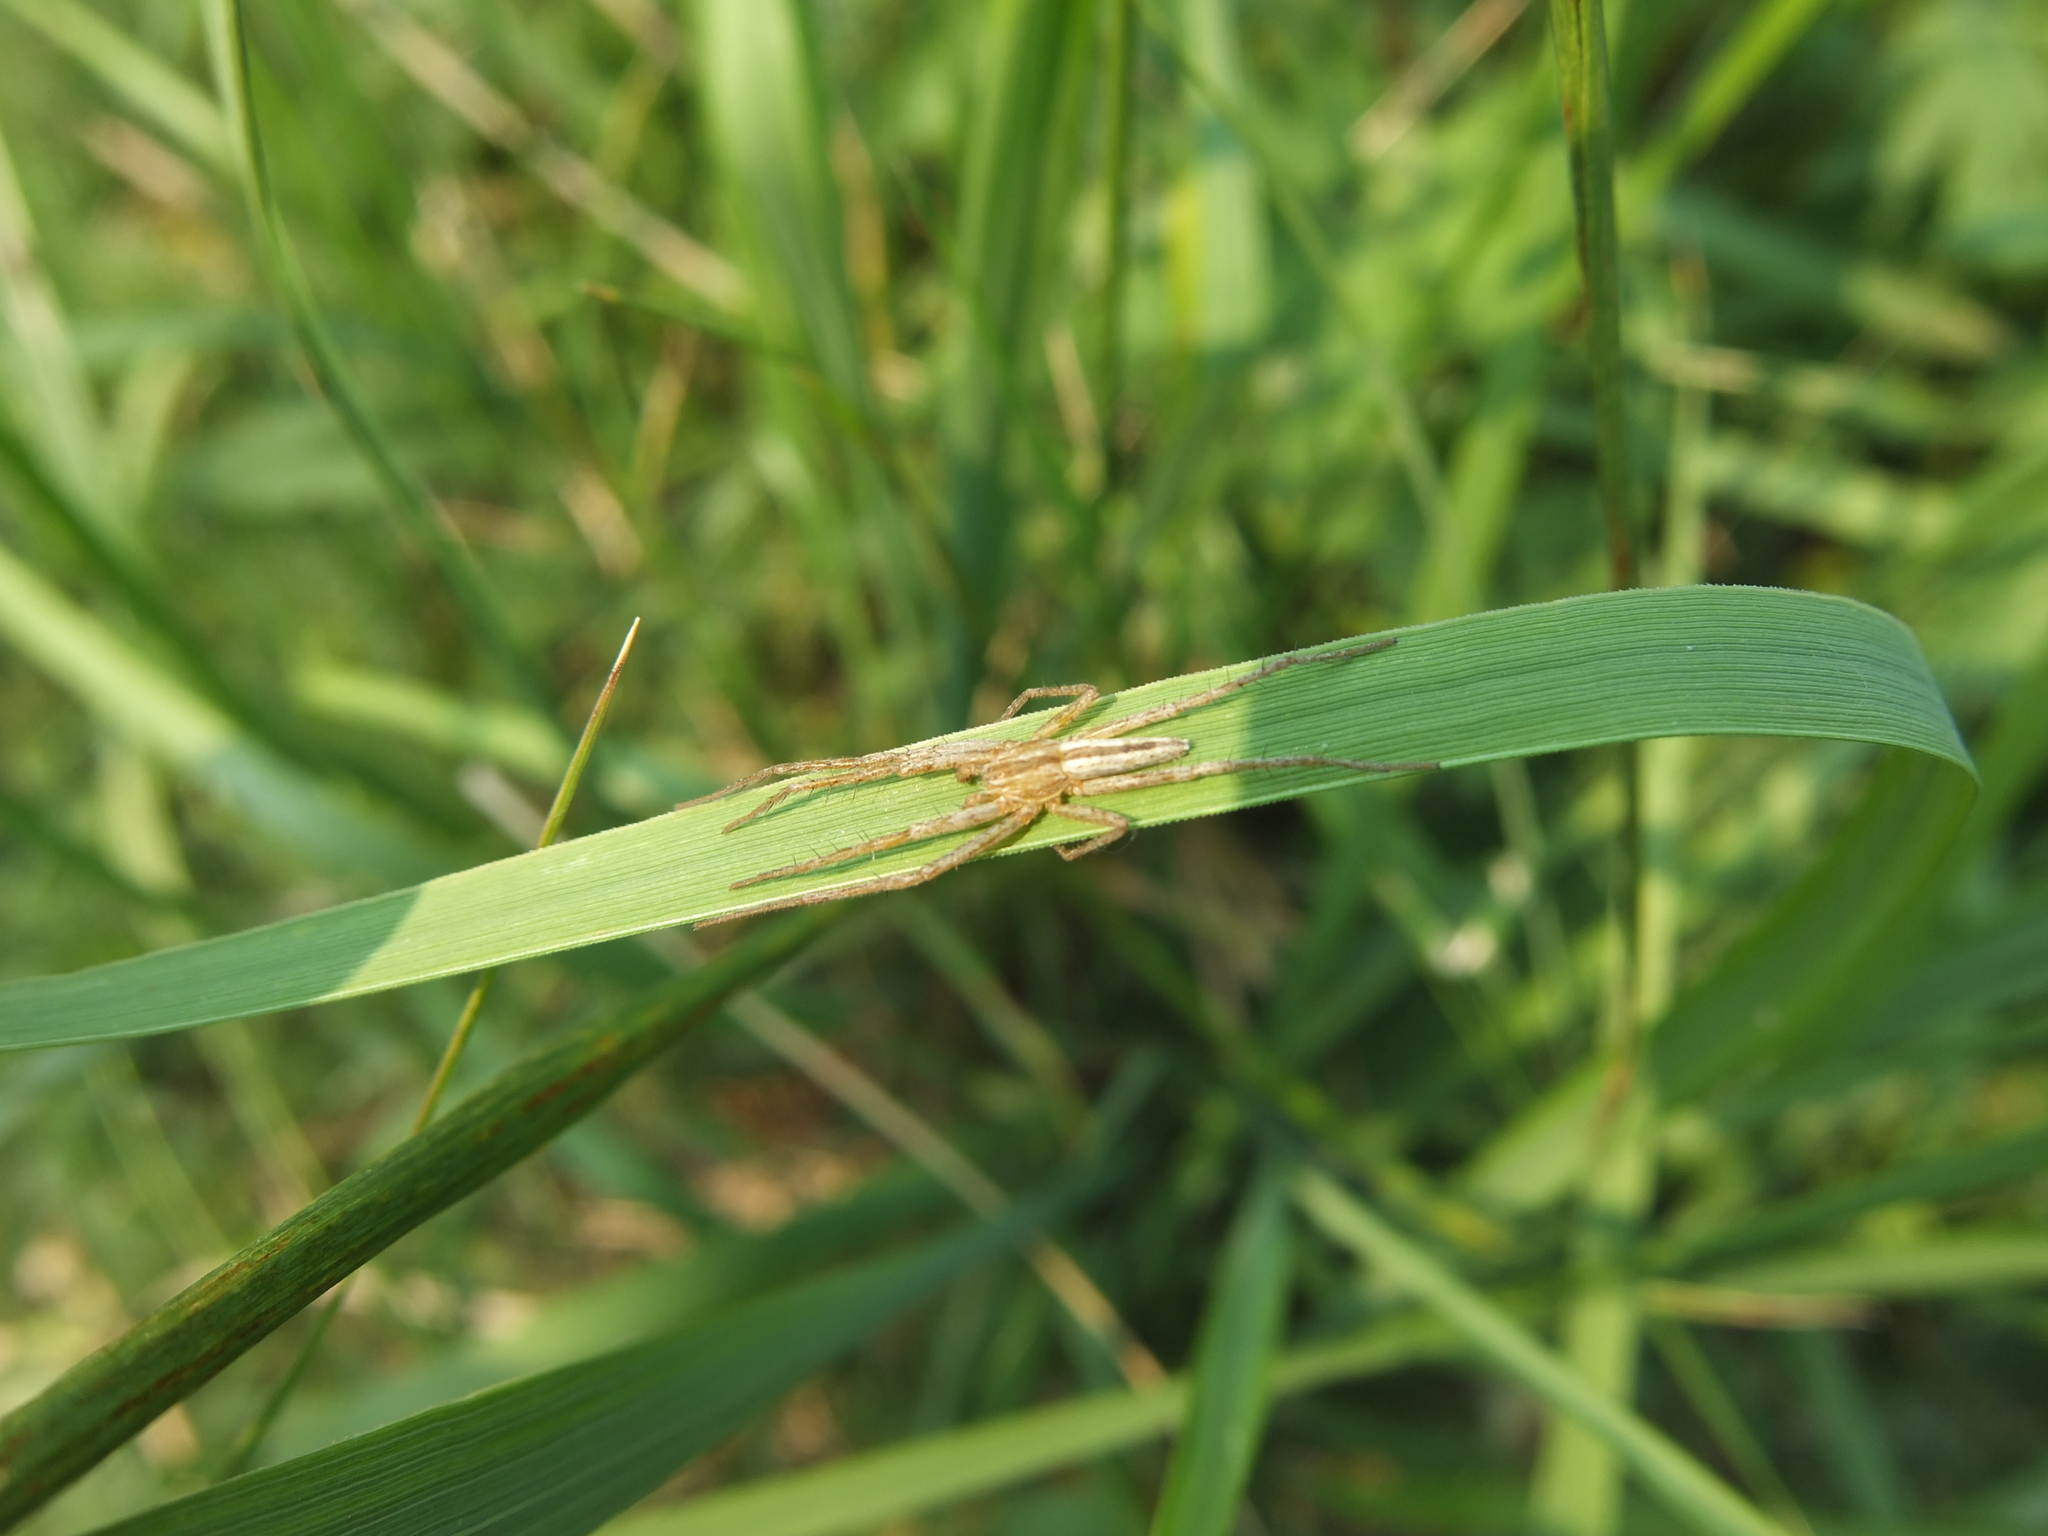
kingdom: Animalia
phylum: Arthropoda
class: Arachnida
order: Araneae
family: Philodromidae
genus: Tibellus
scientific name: Tibellus oblongus
